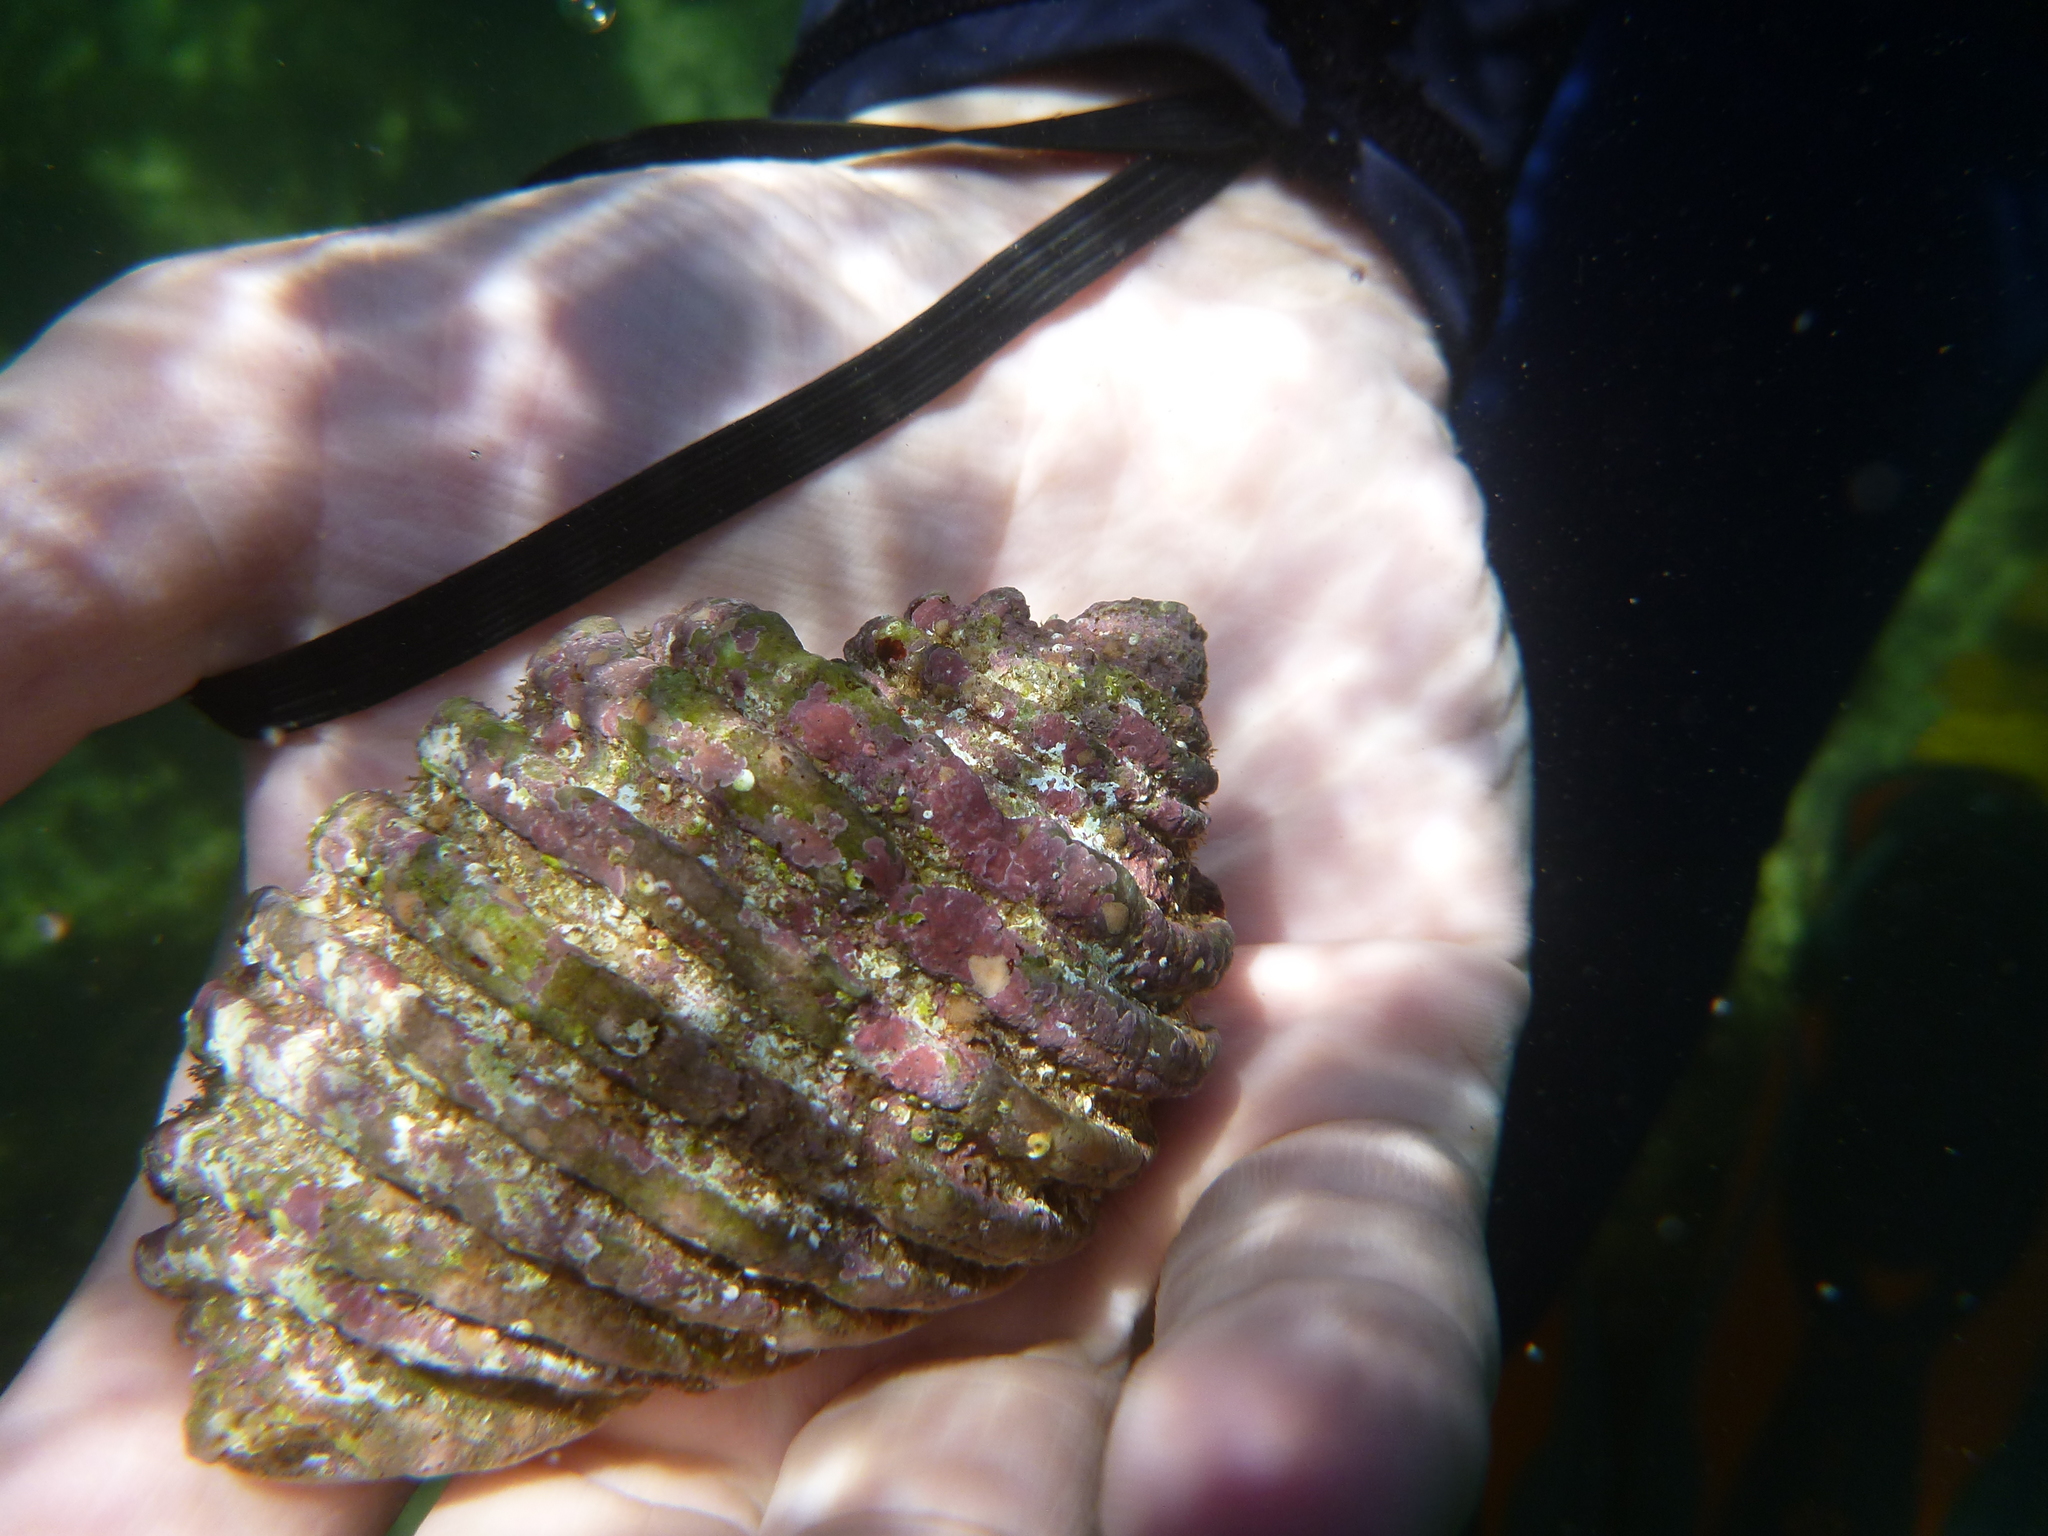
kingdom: Animalia
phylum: Mollusca
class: Gastropoda
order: Neogastropoda
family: Muricidae
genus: Dicathais
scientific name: Dicathais orbita
